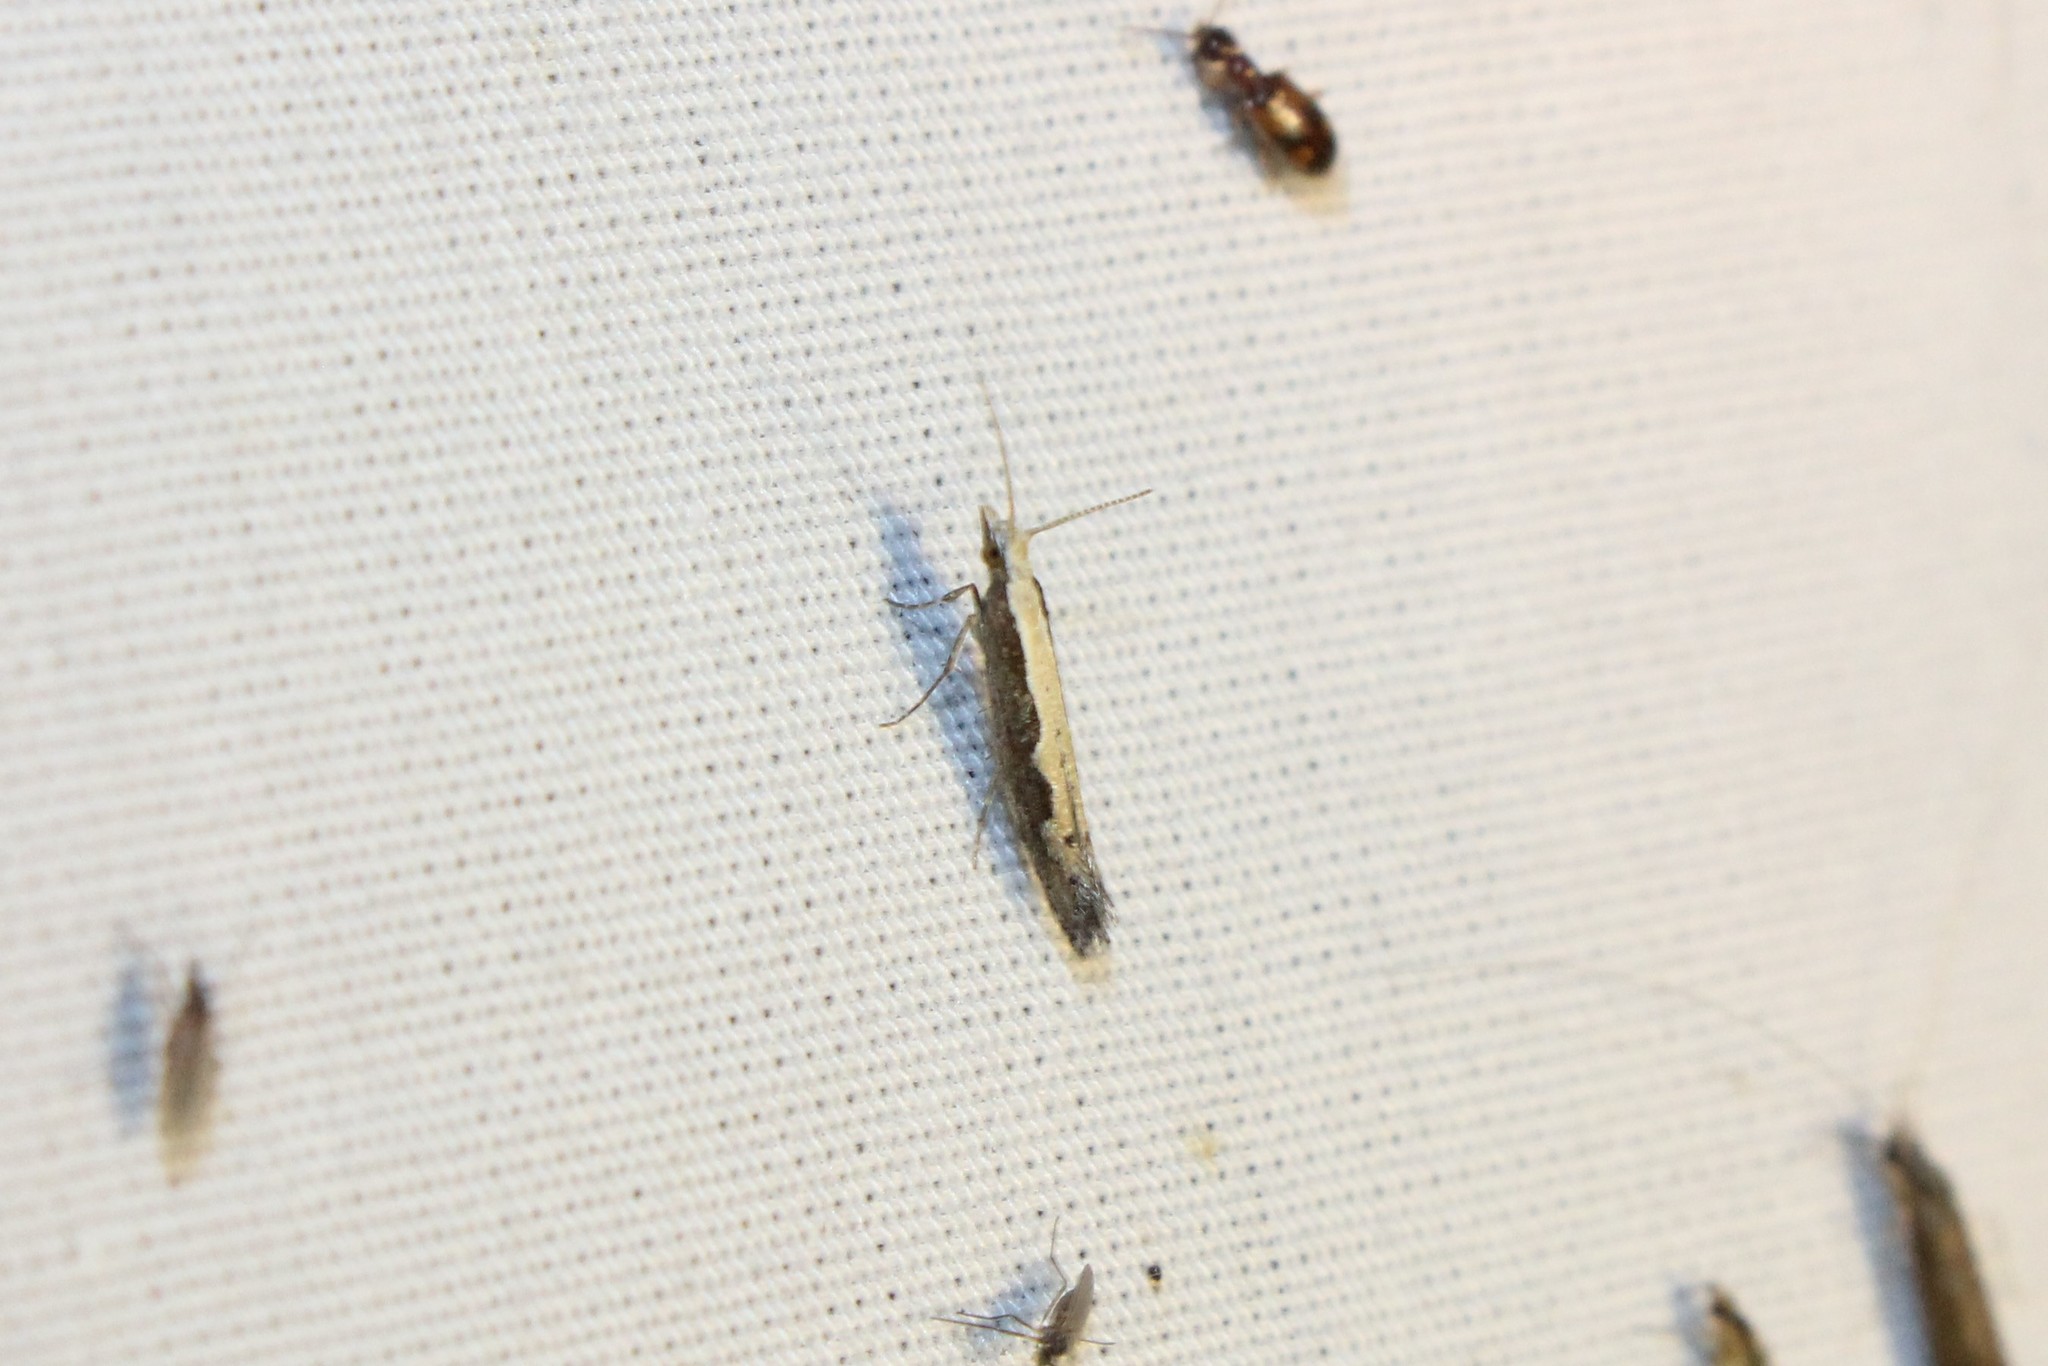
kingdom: Animalia
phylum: Arthropoda
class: Insecta
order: Lepidoptera
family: Plutellidae
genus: Plutella
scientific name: Plutella xylostella
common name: Diamond-back moth
